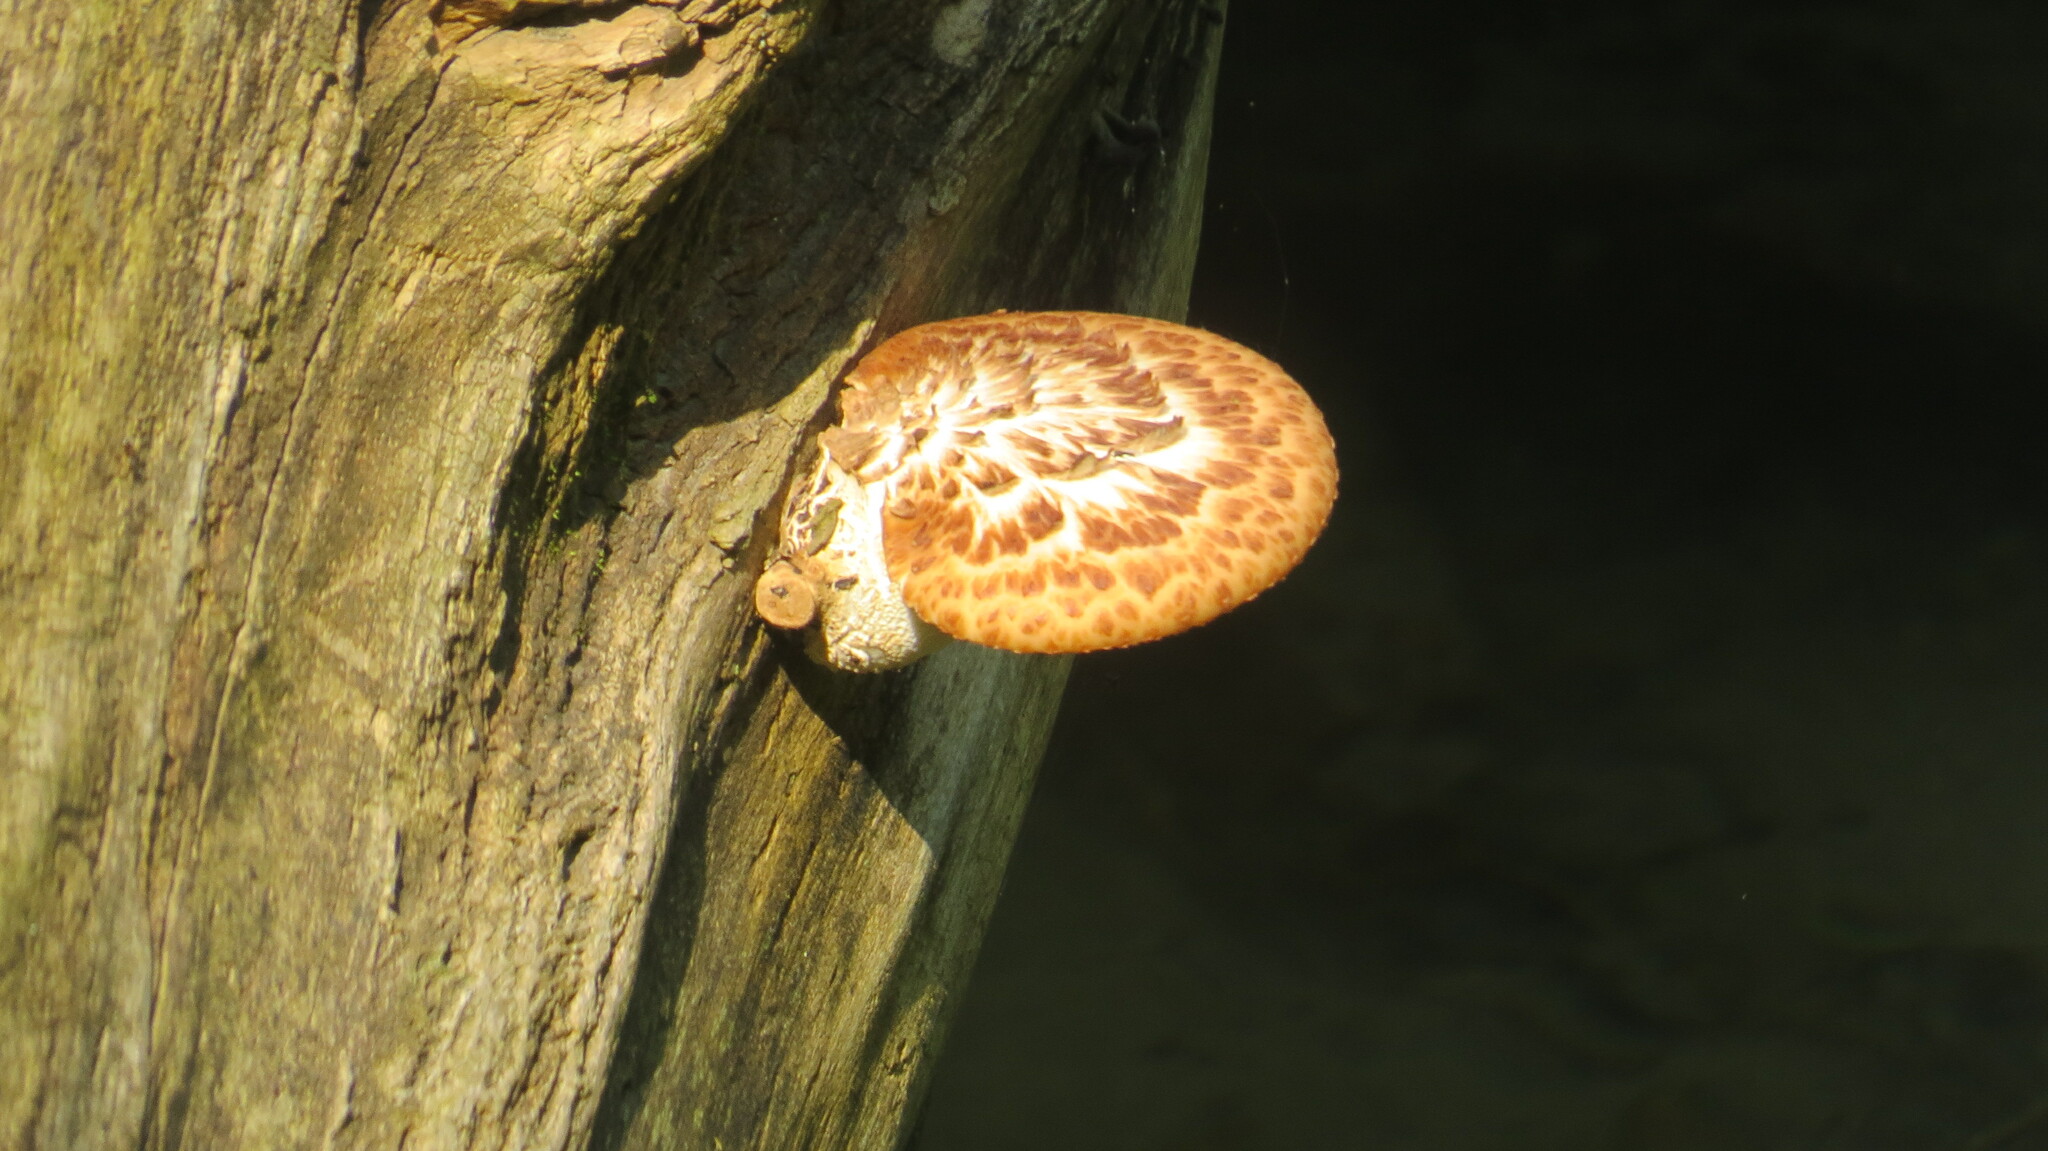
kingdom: Fungi
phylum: Basidiomycota
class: Agaricomycetes
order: Polyporales
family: Polyporaceae
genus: Cerioporus
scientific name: Cerioporus squamosus
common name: Dryad's saddle
